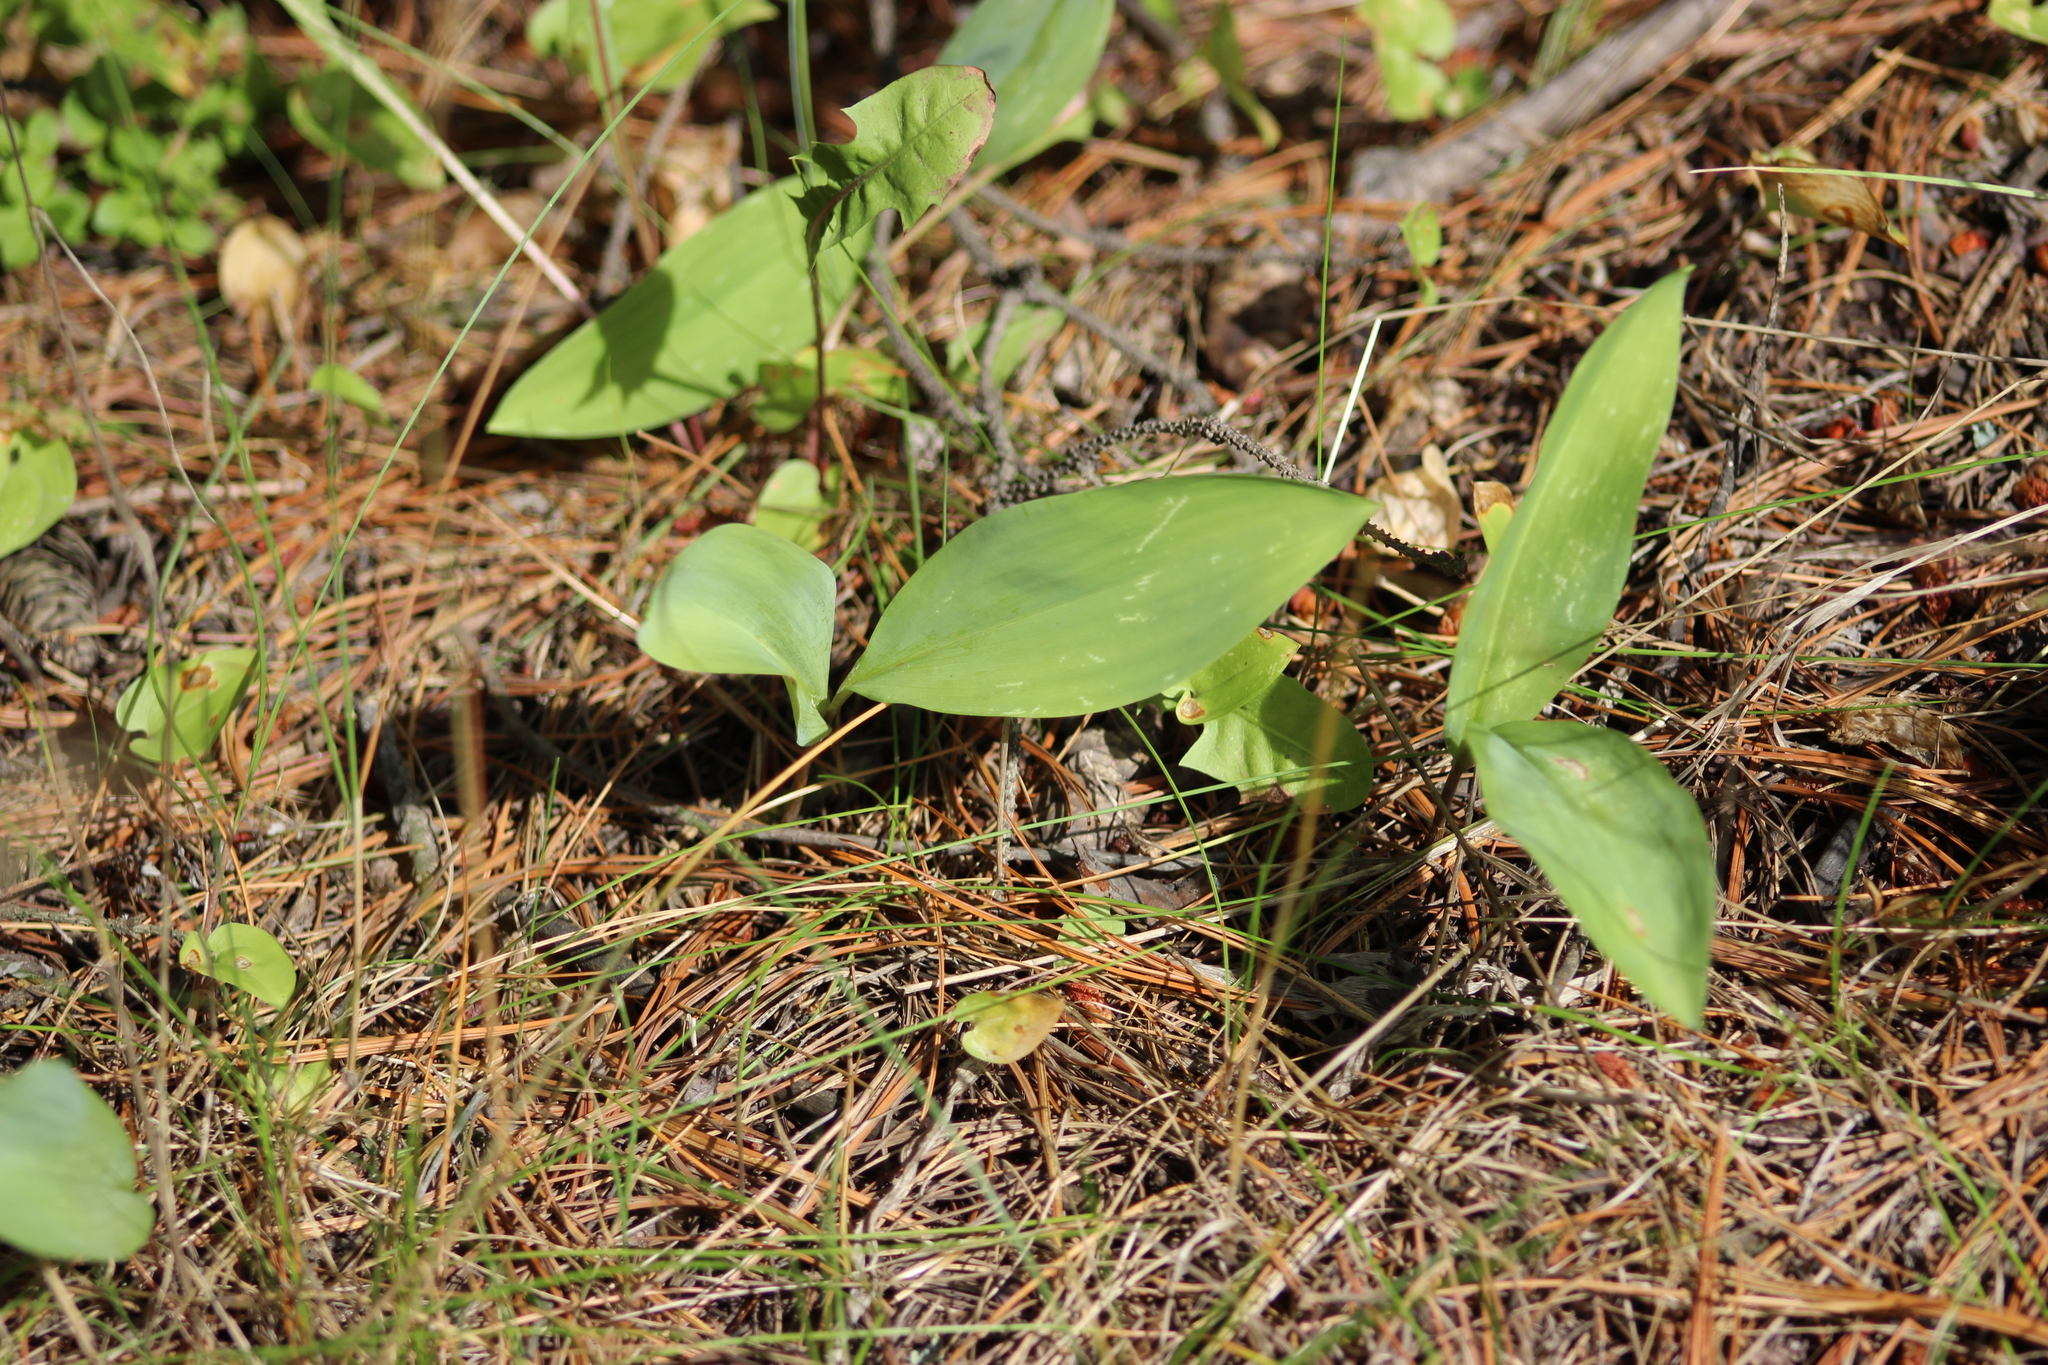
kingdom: Plantae
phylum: Tracheophyta
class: Liliopsida
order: Asparagales
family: Asparagaceae
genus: Convallaria
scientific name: Convallaria majalis
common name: Lily-of-the-valley
